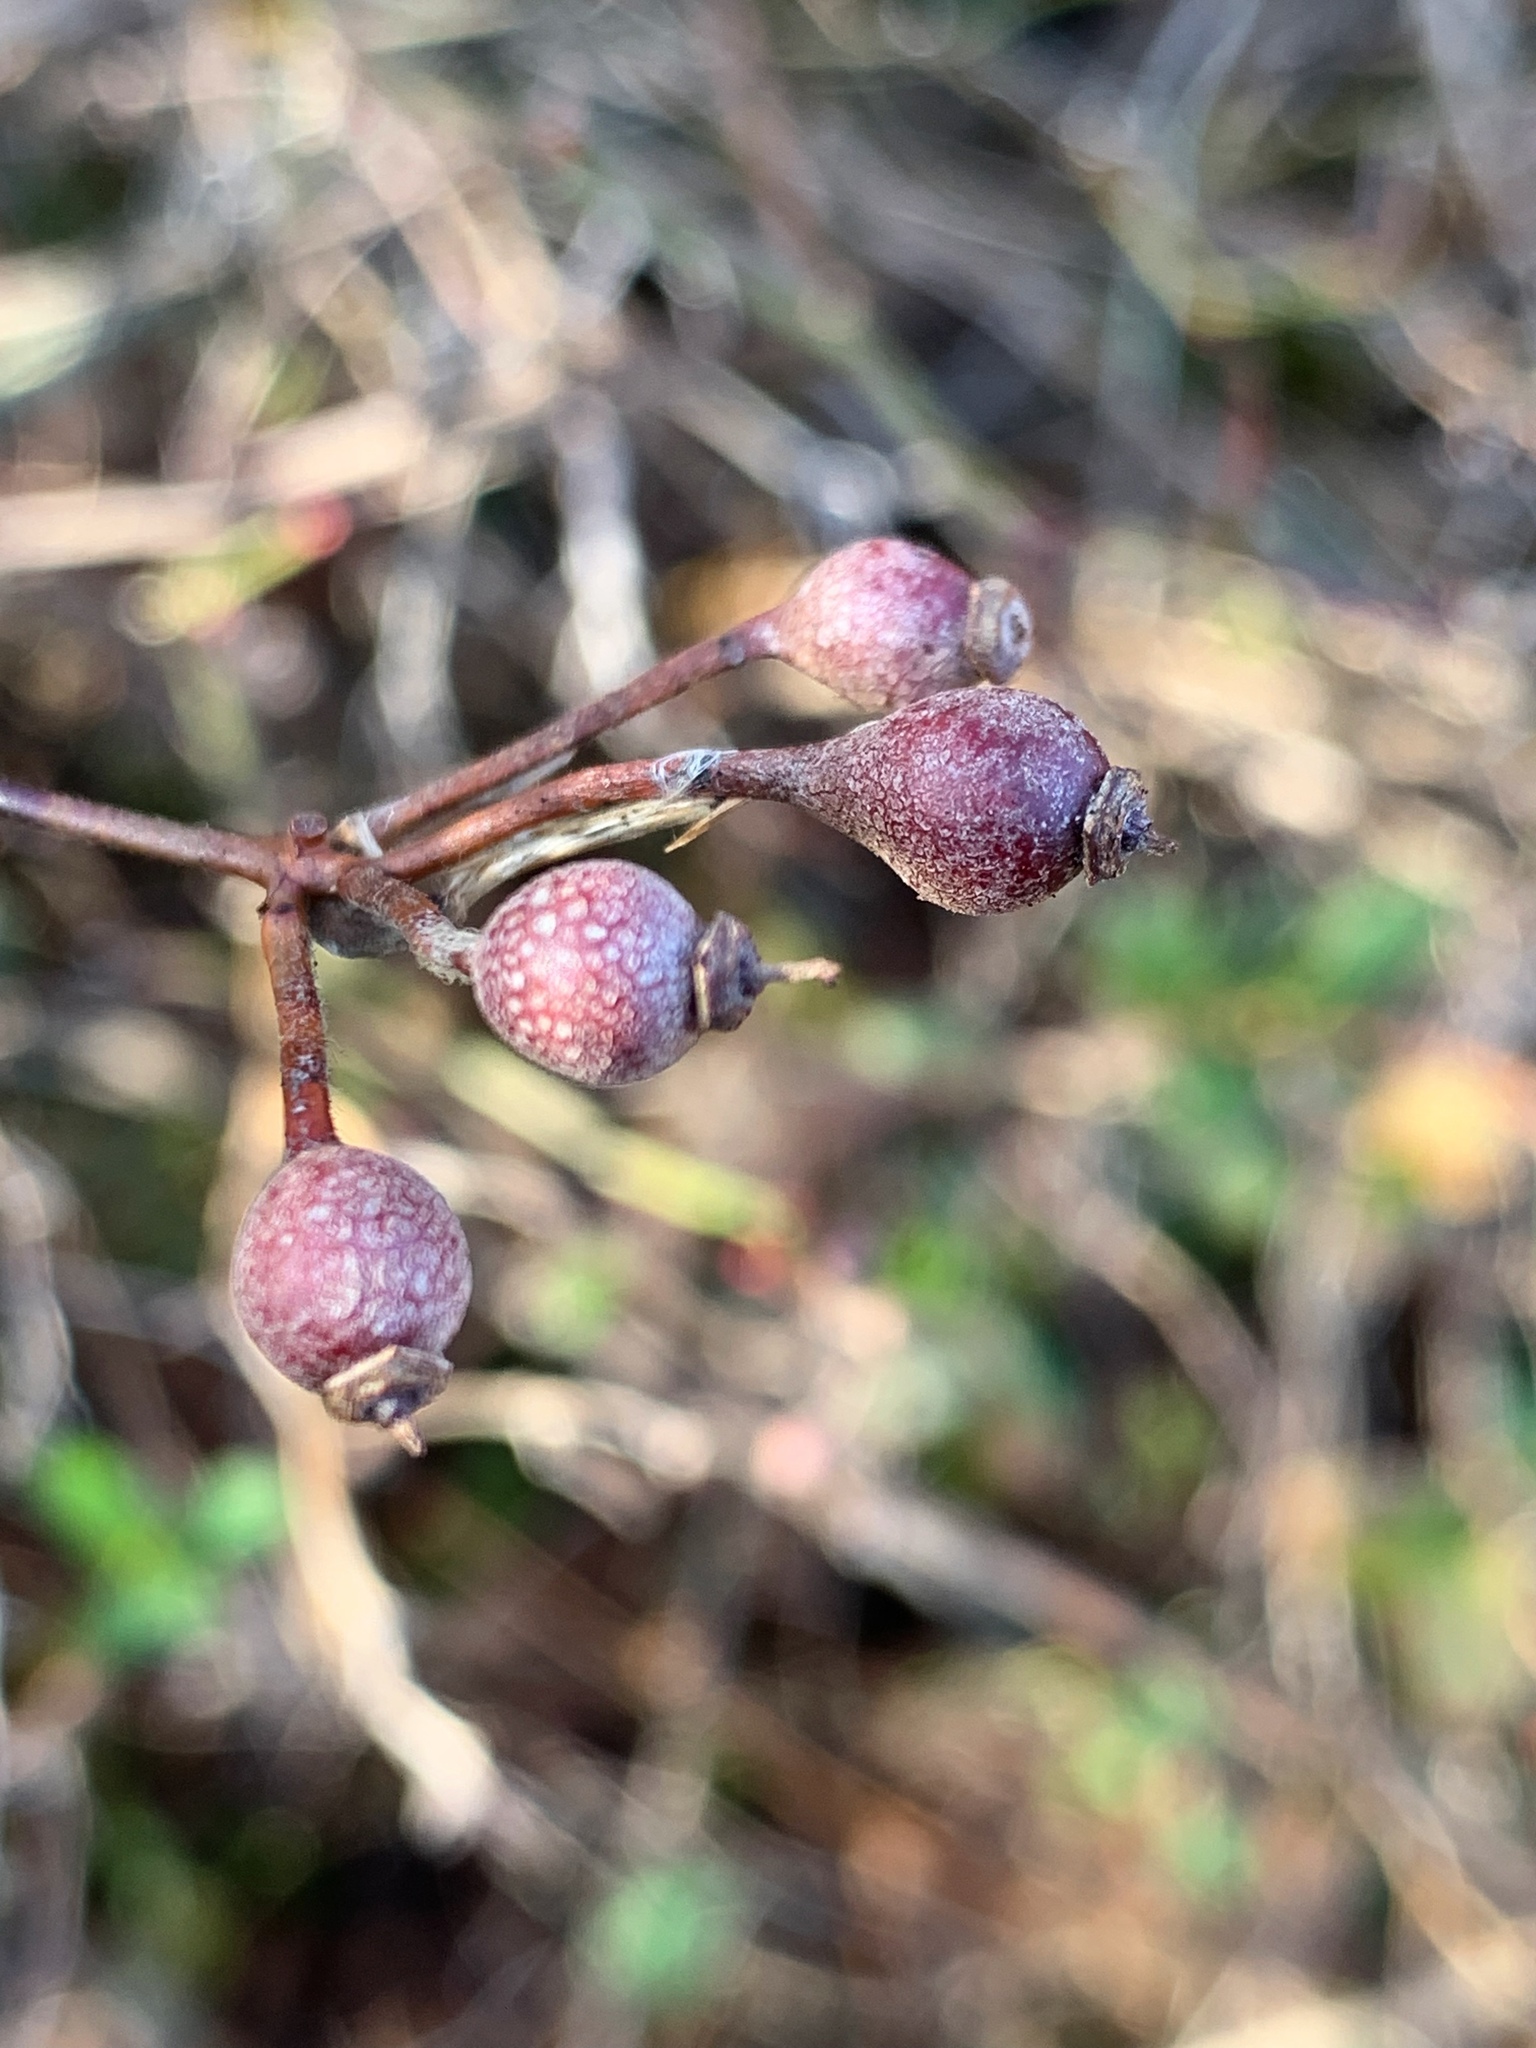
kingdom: Plantae
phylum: Tracheophyta
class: Magnoliopsida
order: Rosales
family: Rosaceae
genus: Rosa
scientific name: Rosa multiflora
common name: Multiflora rose
